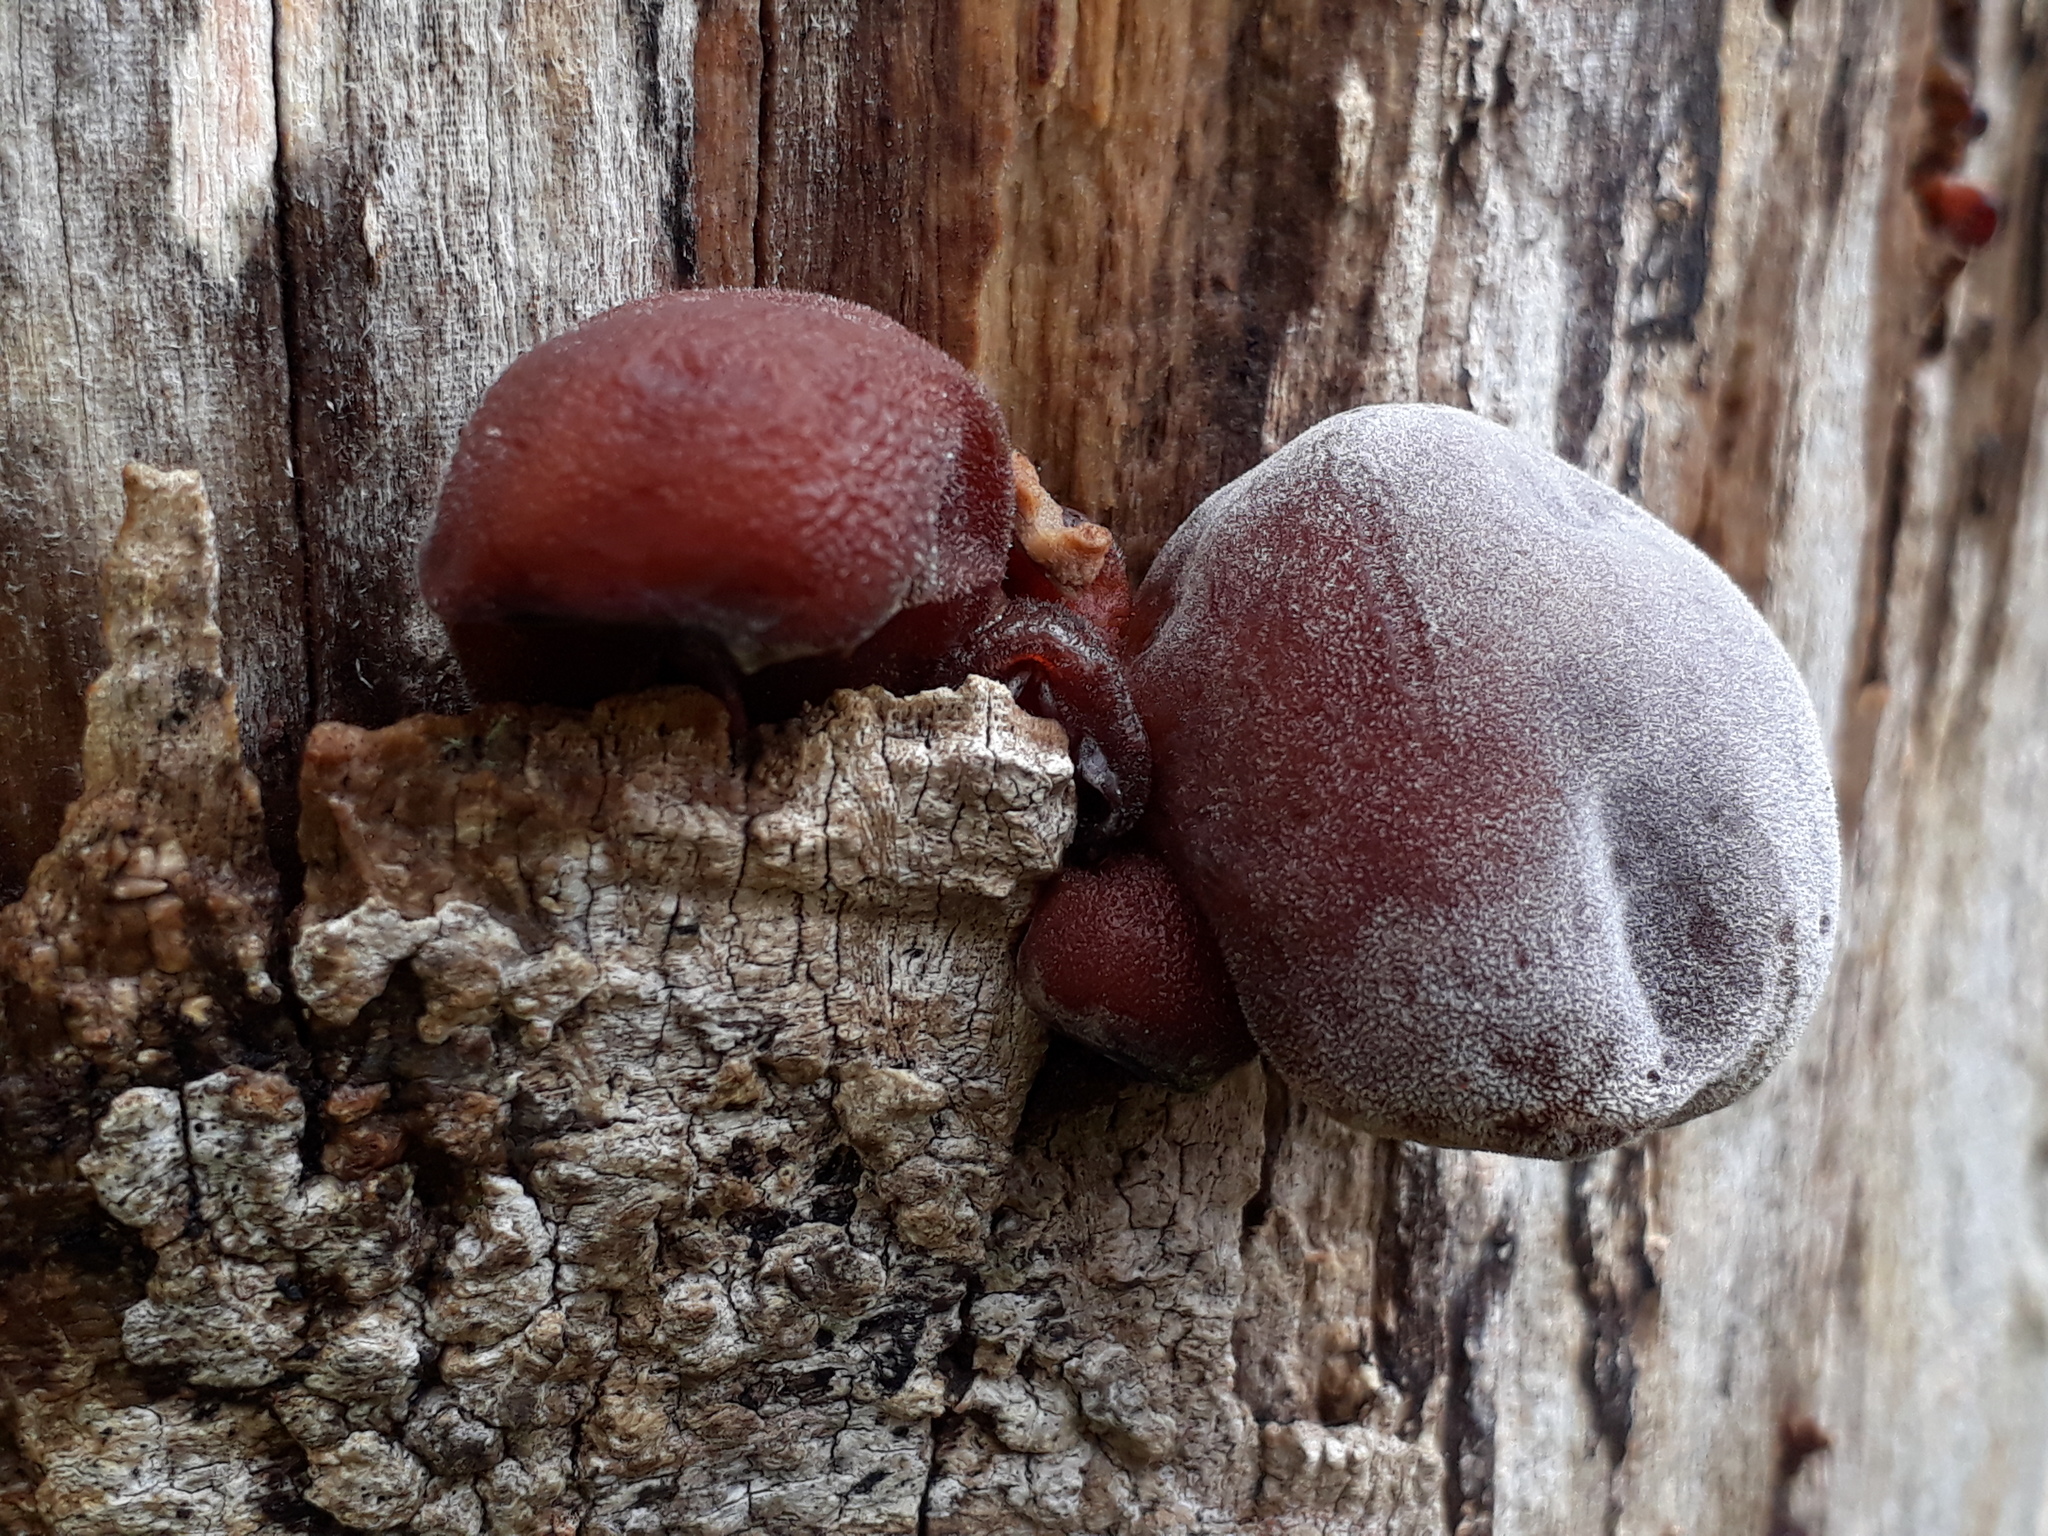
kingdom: Fungi
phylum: Basidiomycota
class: Agaricomycetes
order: Auriculariales
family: Auriculariaceae
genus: Auricularia
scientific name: Auricularia cornea
